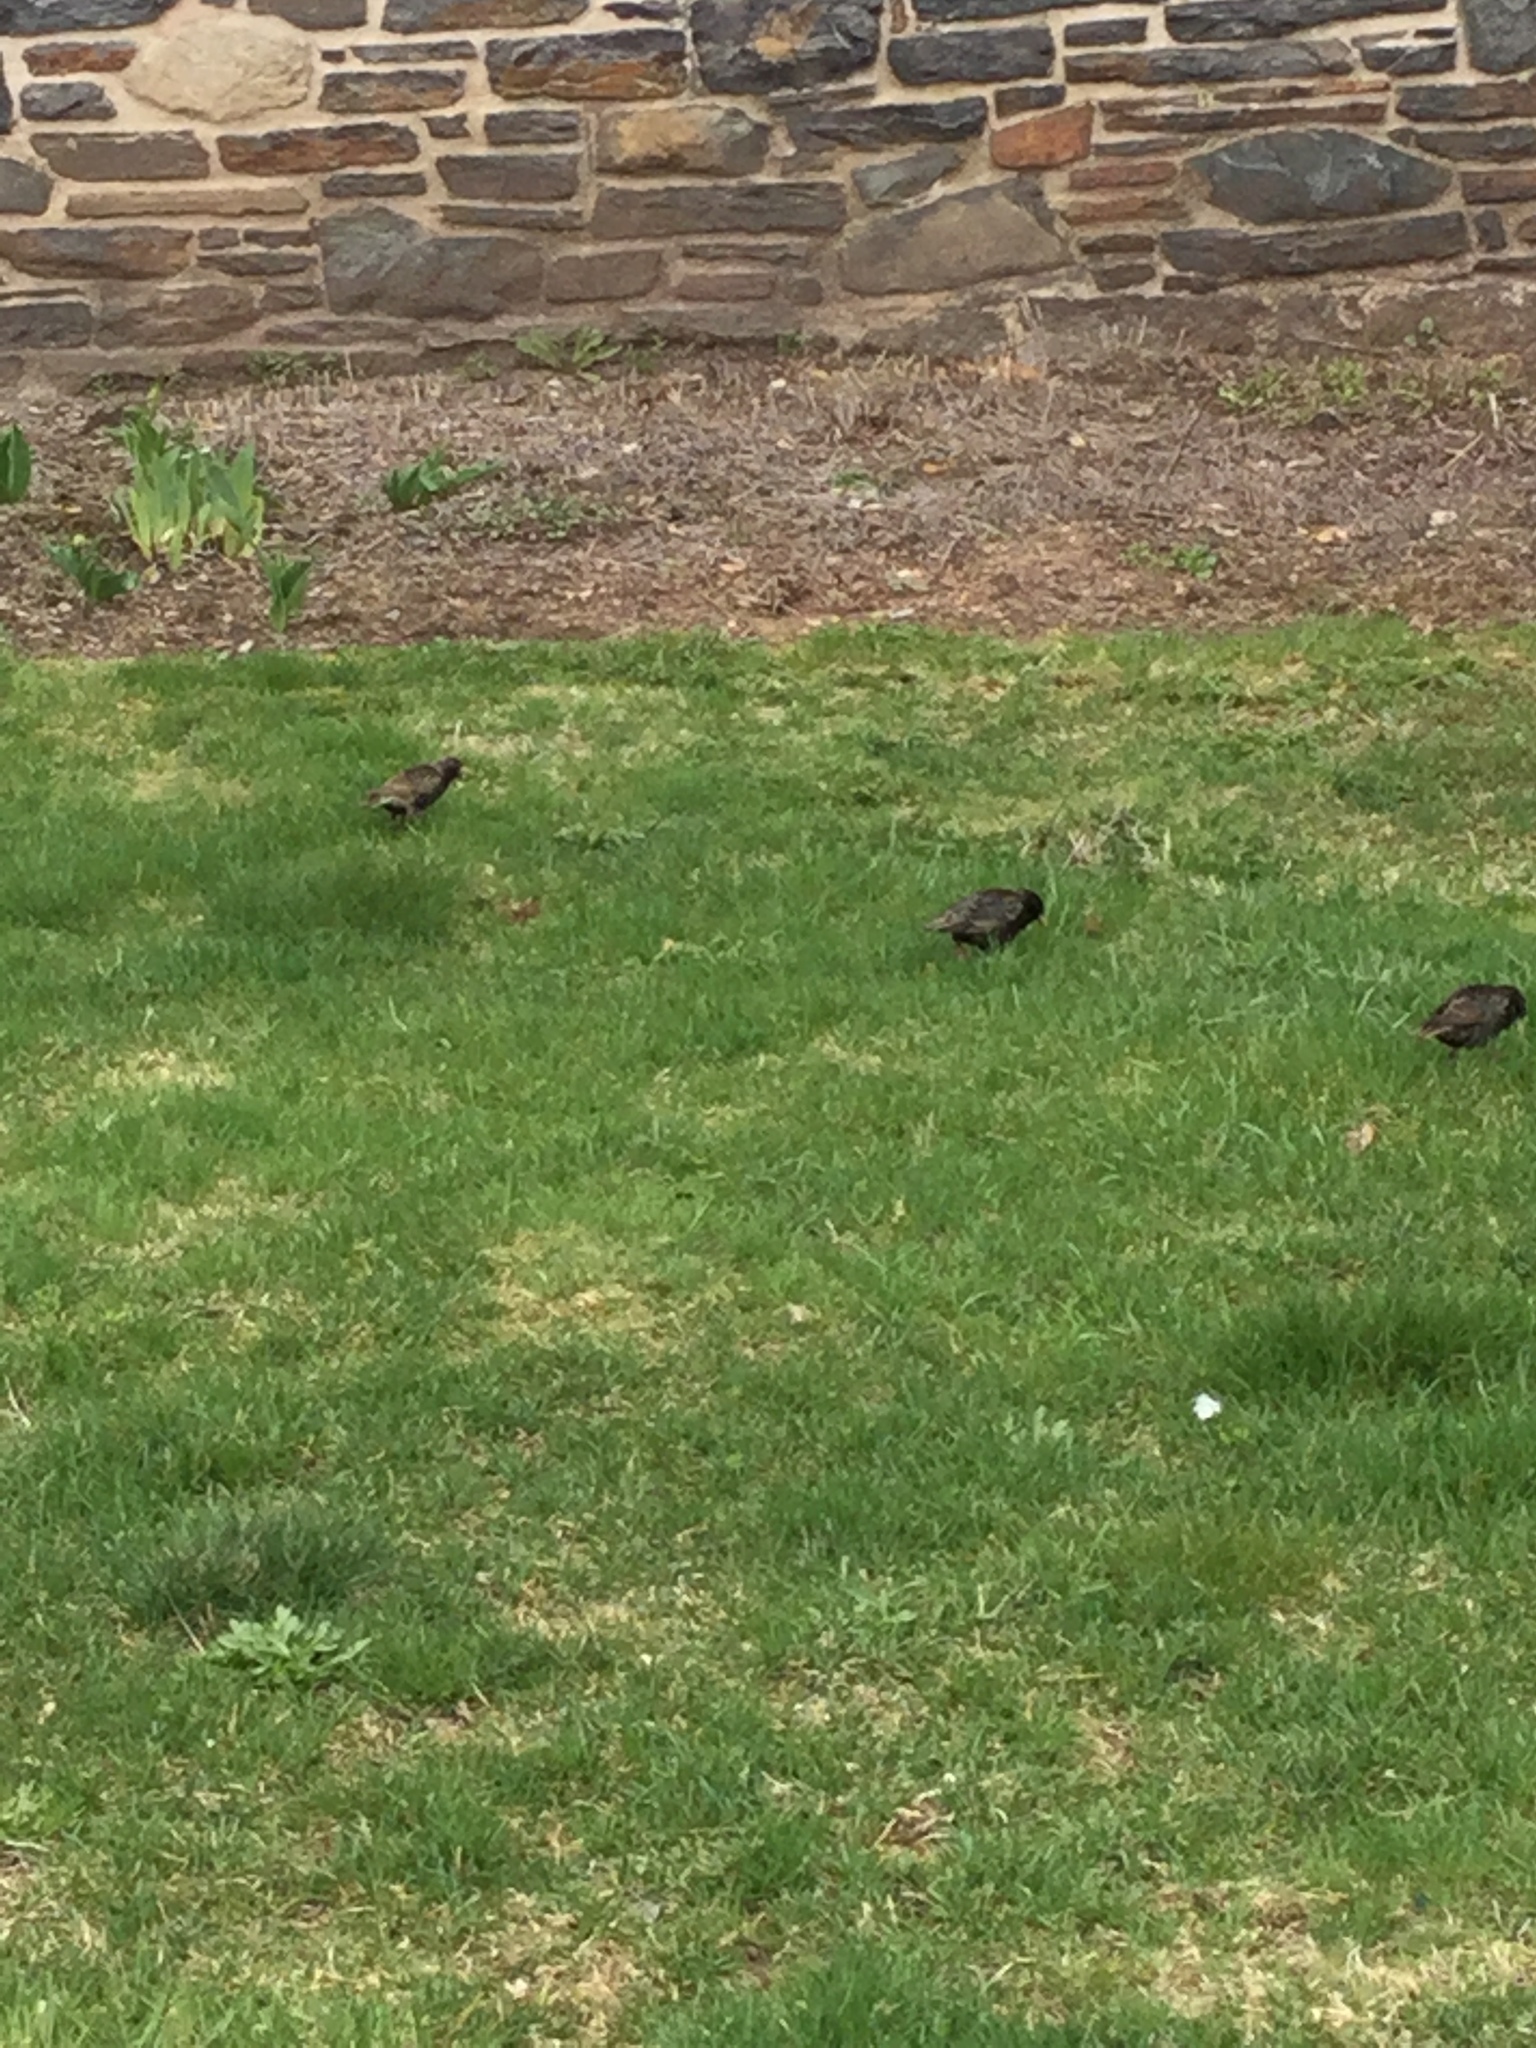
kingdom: Animalia
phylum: Chordata
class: Aves
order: Passeriformes
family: Sturnidae
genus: Sturnus
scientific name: Sturnus vulgaris
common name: Common starling
